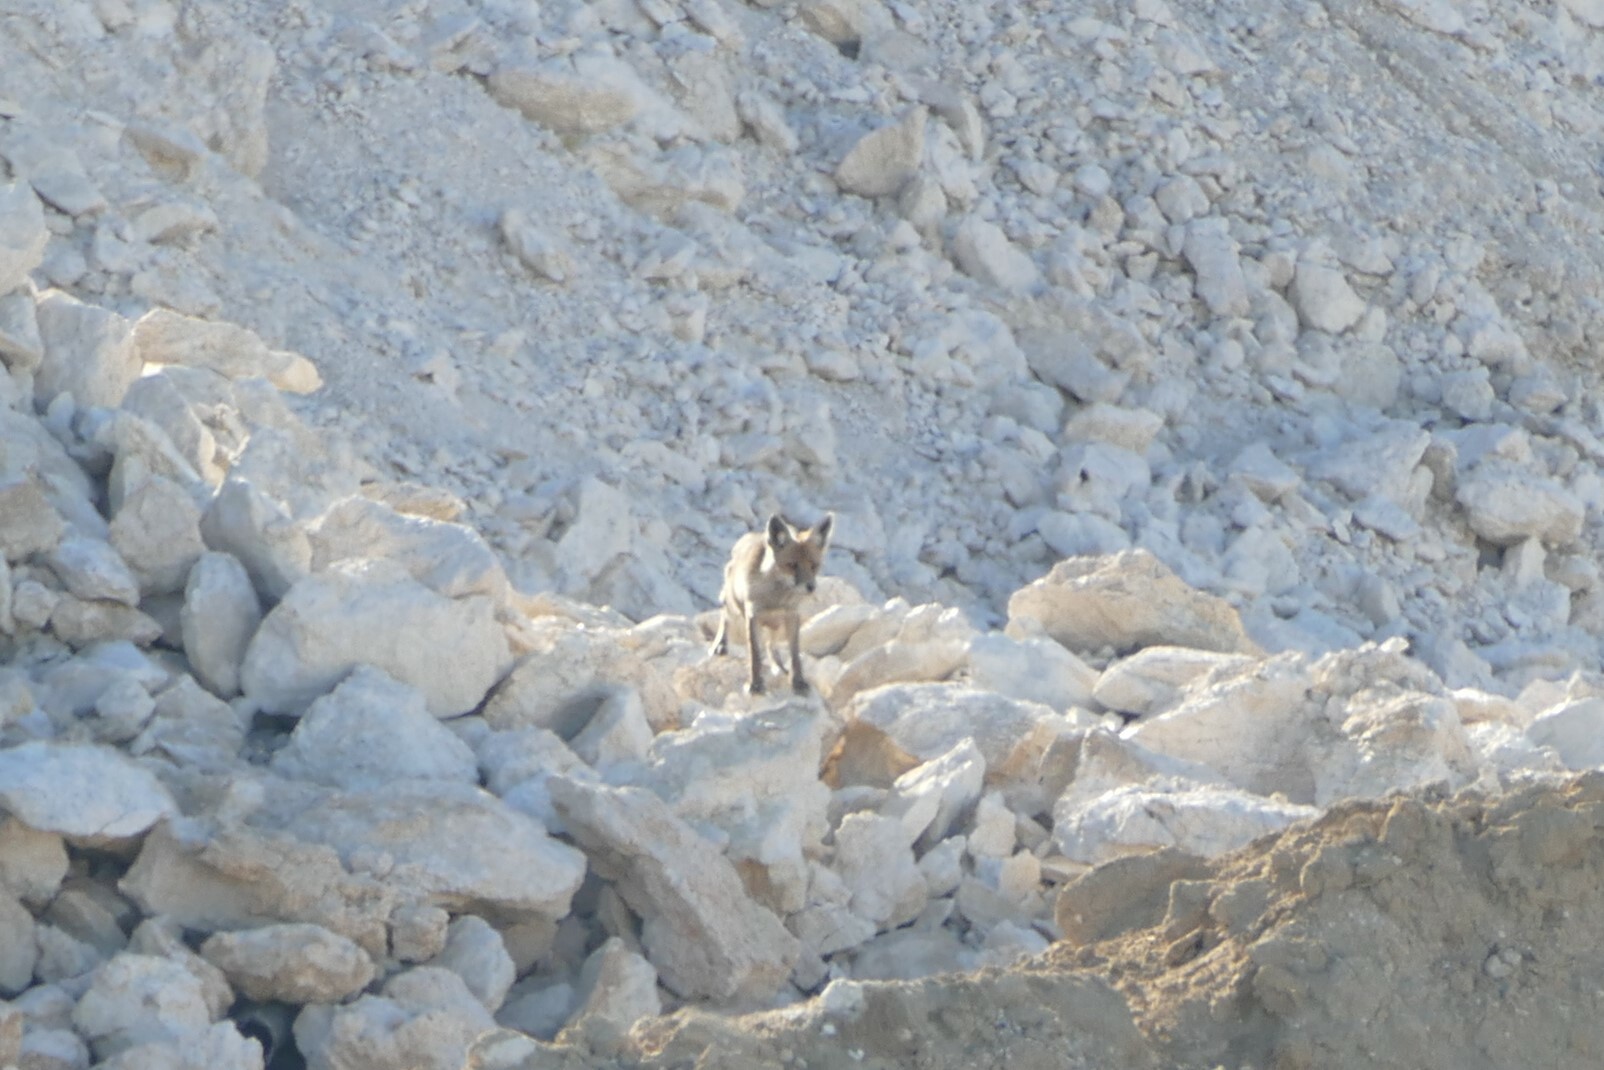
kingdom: Animalia
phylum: Chordata
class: Mammalia
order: Carnivora
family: Canidae
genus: Vulpes
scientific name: Vulpes vulpes
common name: Red fox
